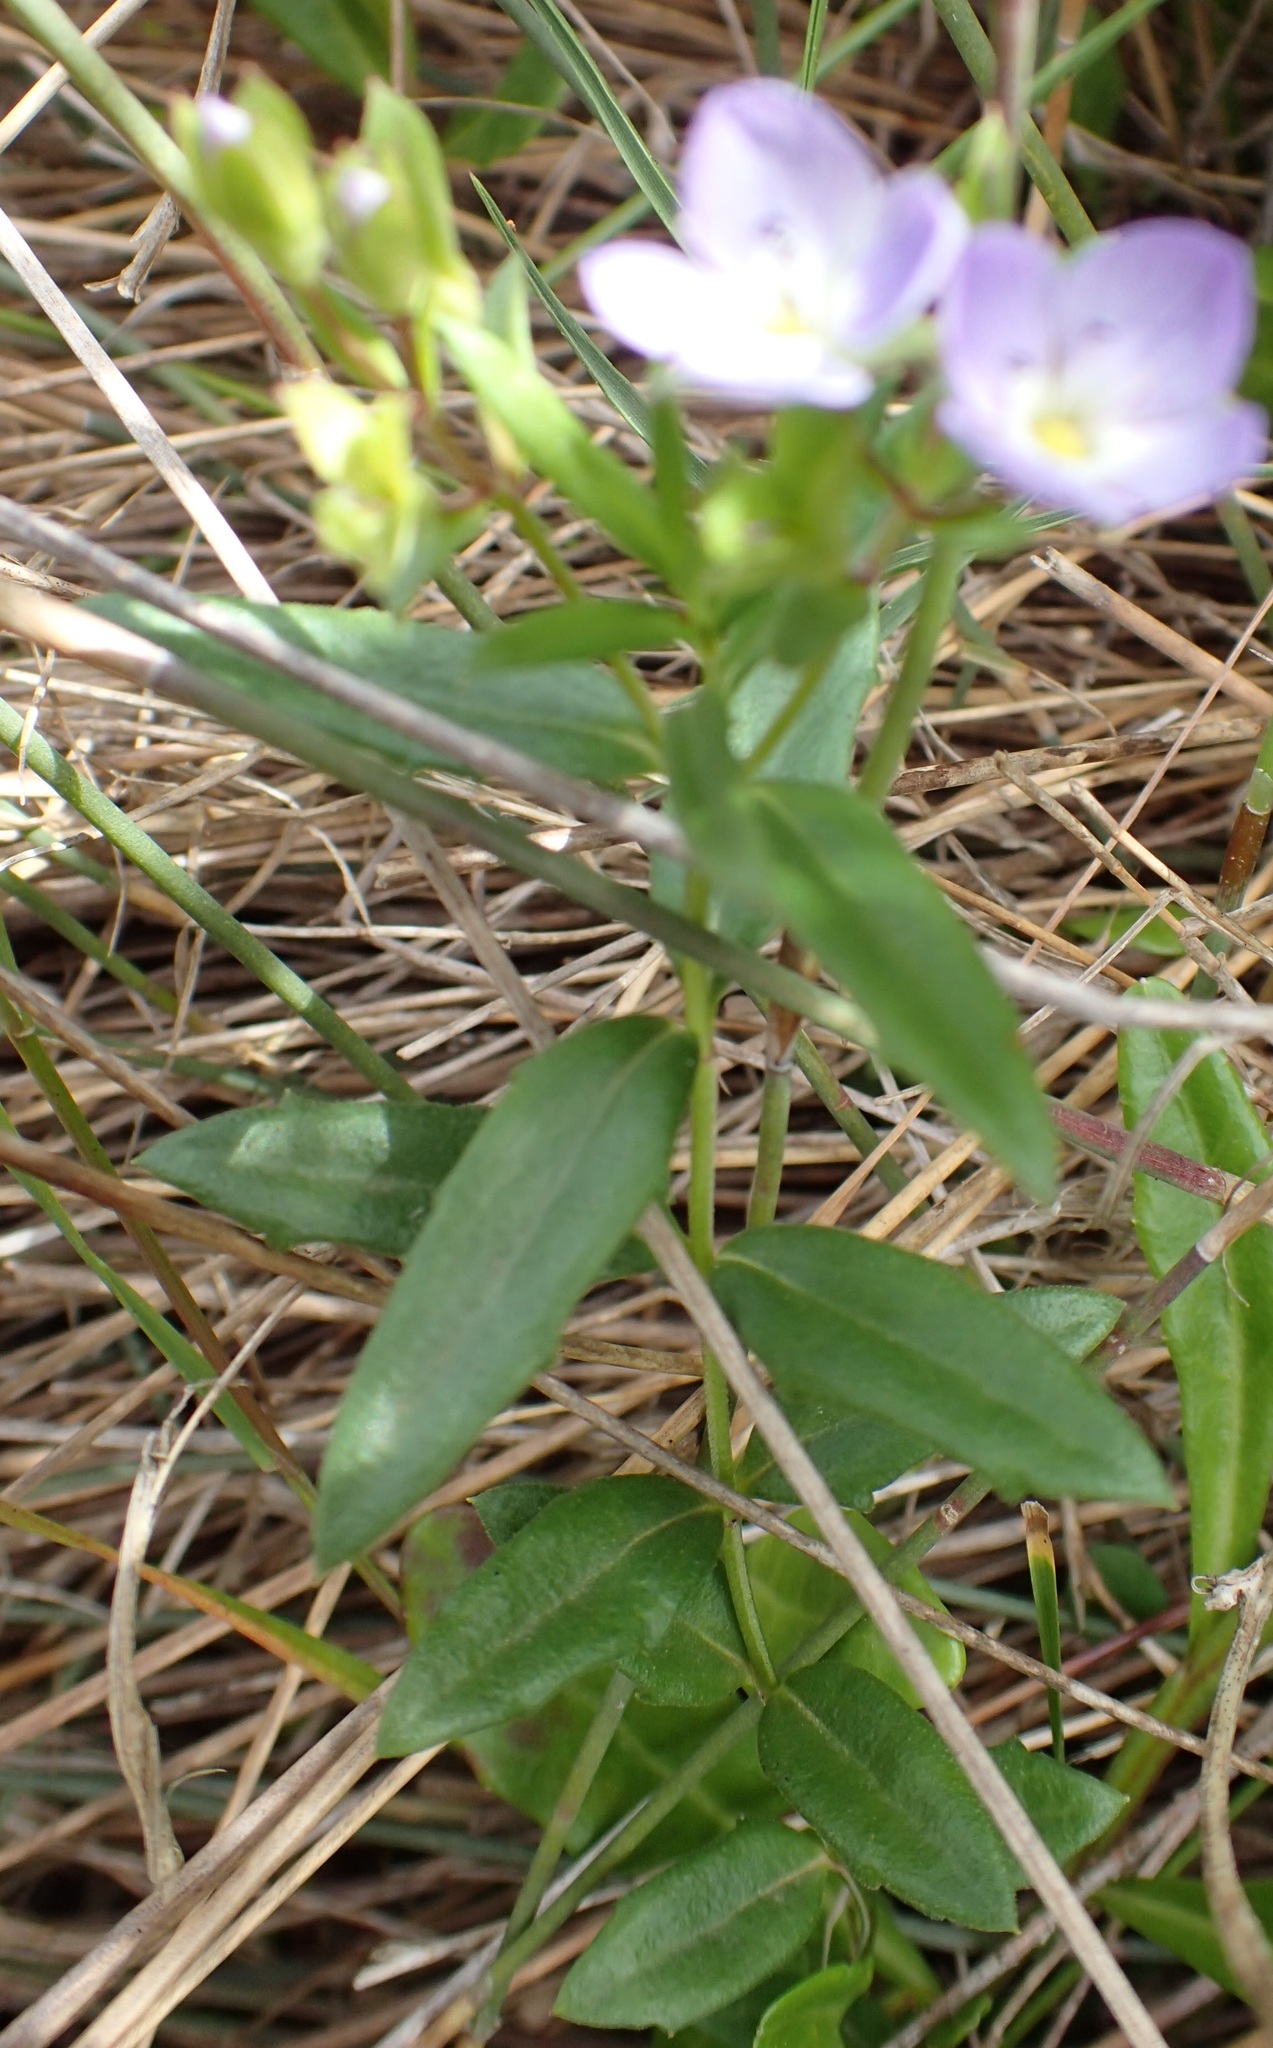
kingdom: Plantae
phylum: Tracheophyta
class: Magnoliopsida
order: Lamiales
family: Plantaginaceae
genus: Veronica
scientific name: Veronica gracilis
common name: Slender speedwell
